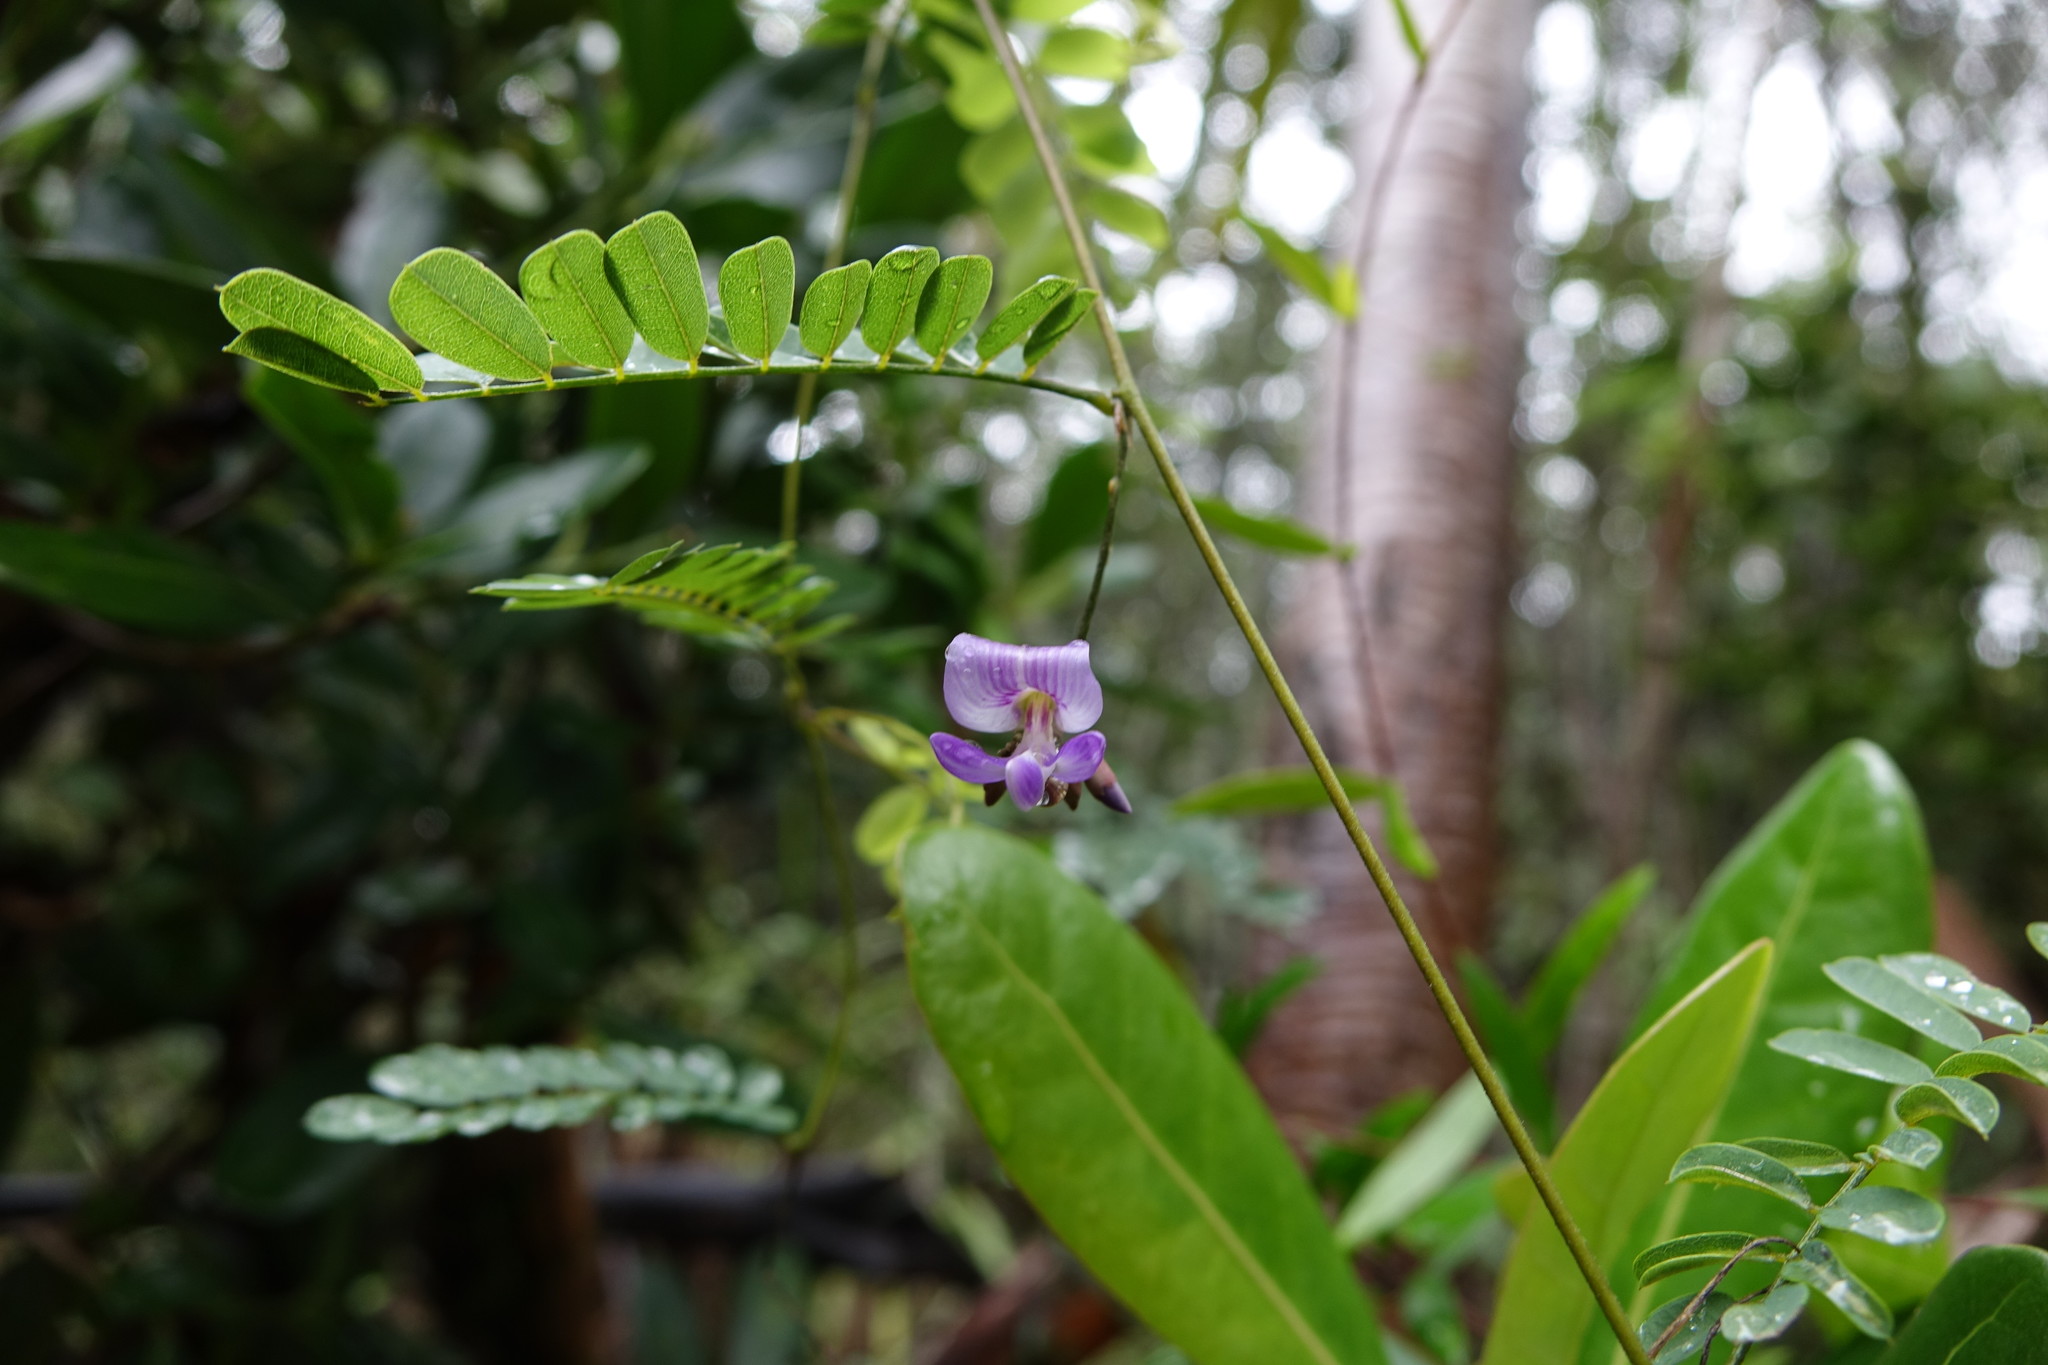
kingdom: Plantae
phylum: Tracheophyta
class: Magnoliopsida
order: Fabales
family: Fabaceae
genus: Abrus
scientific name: Abrus precatorius
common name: Rosarypea
